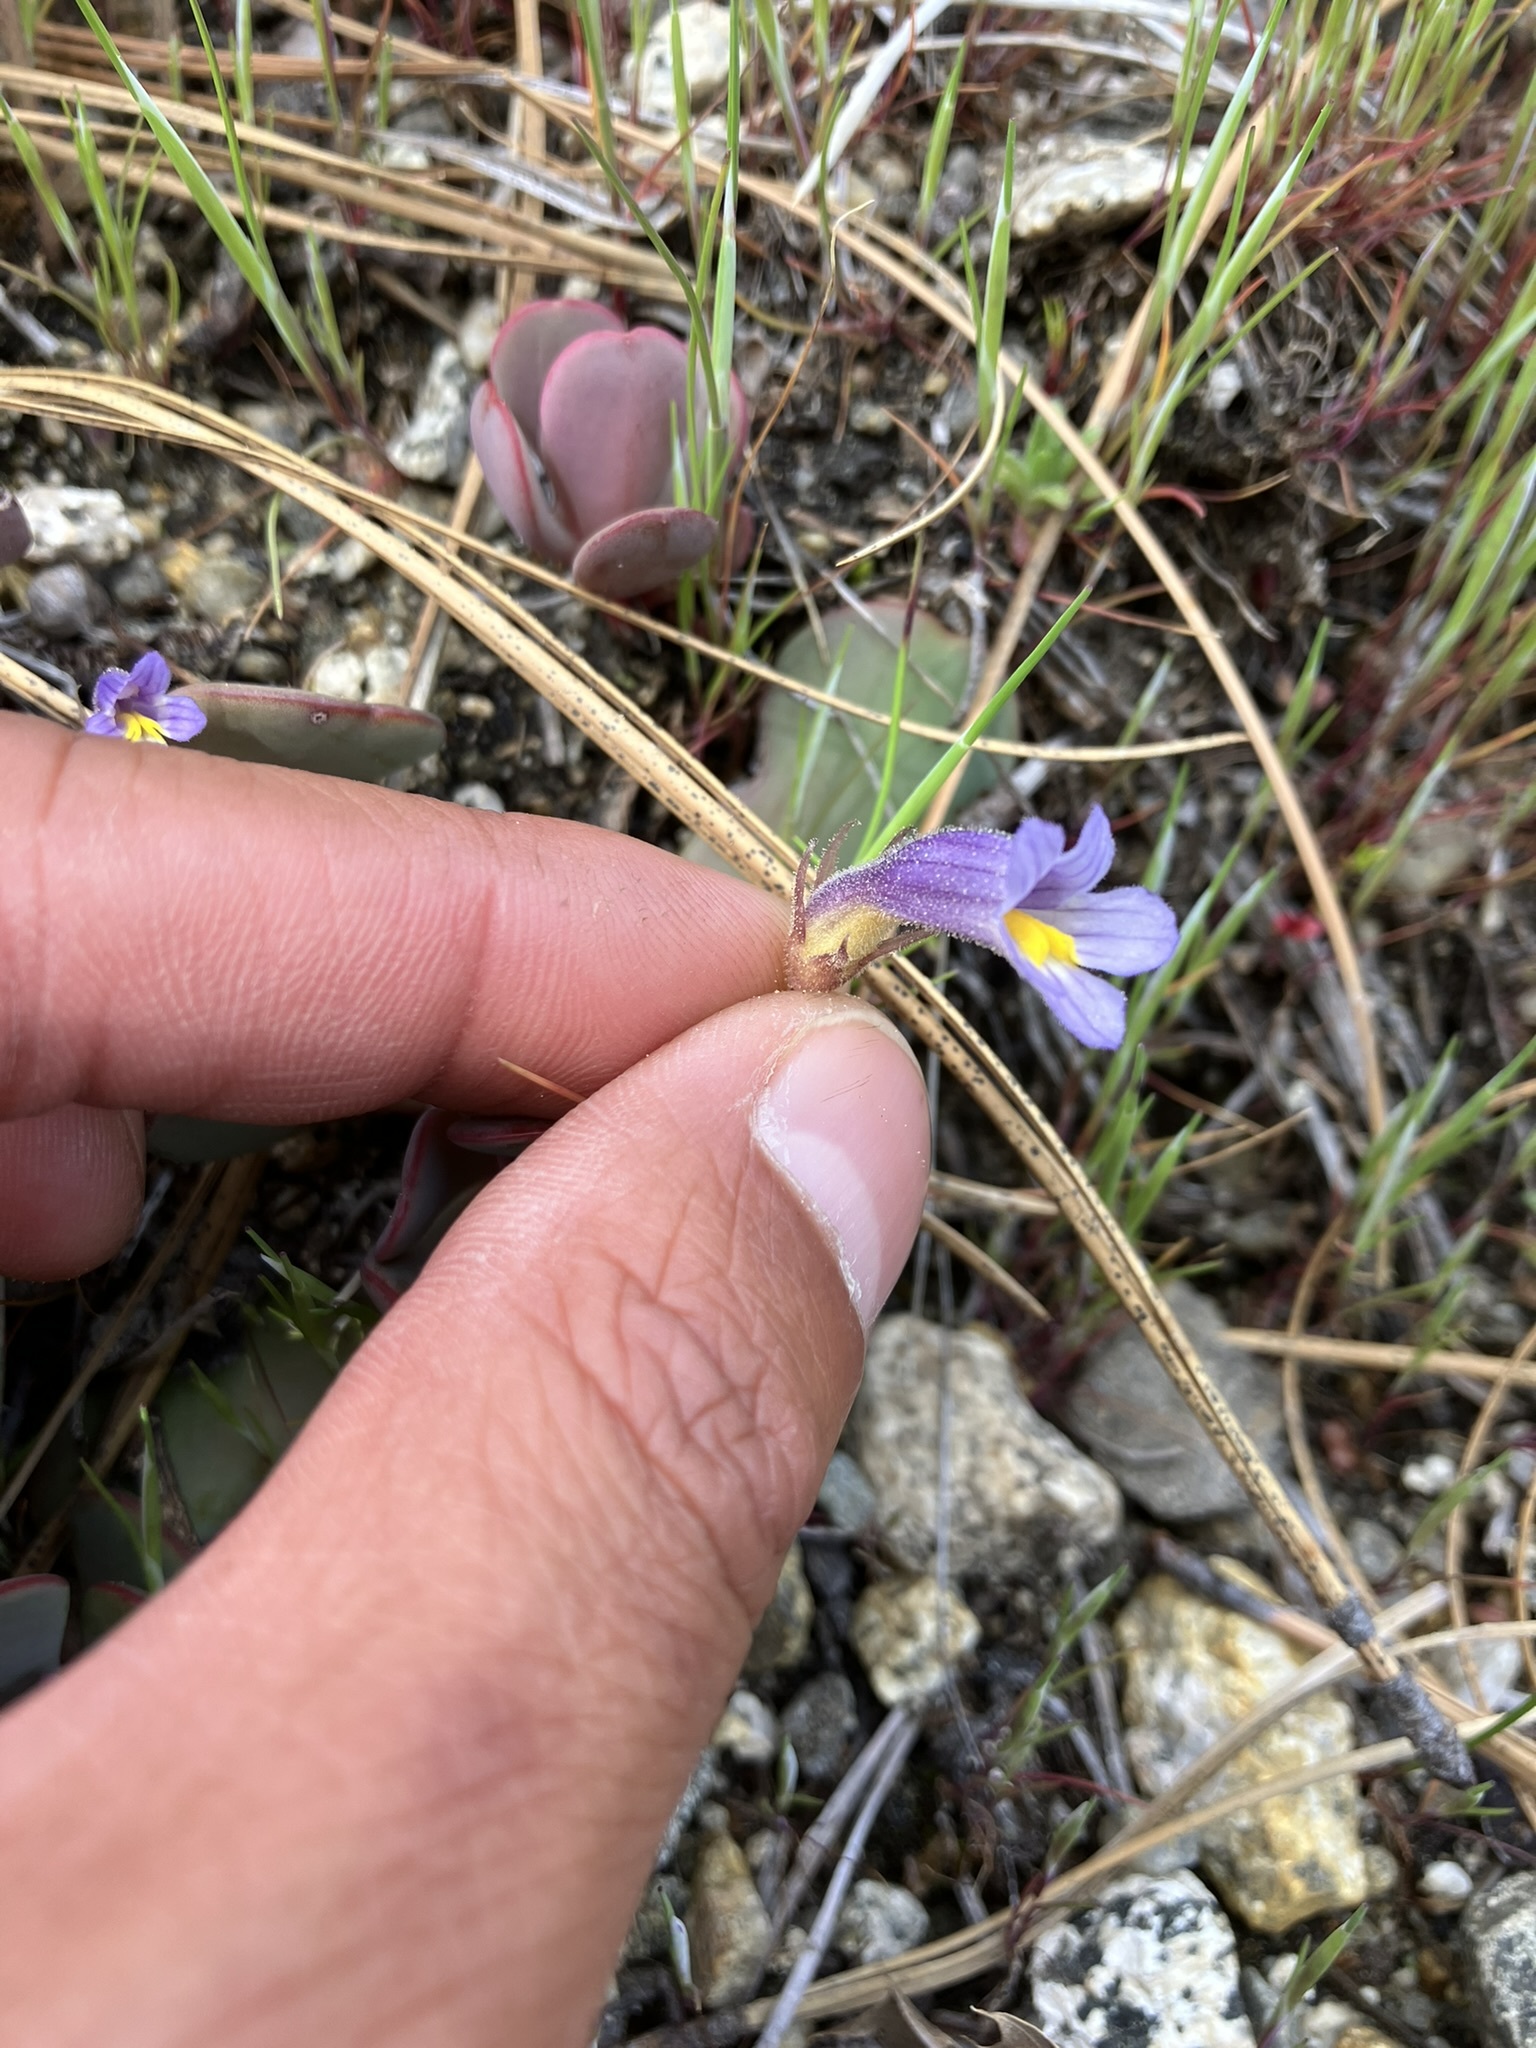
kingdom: Plantae
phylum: Tracheophyta
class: Magnoliopsida
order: Lamiales
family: Orobanchaceae
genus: Aphyllon
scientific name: Aphyllon uniflorum
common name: One-flowered broomrape
